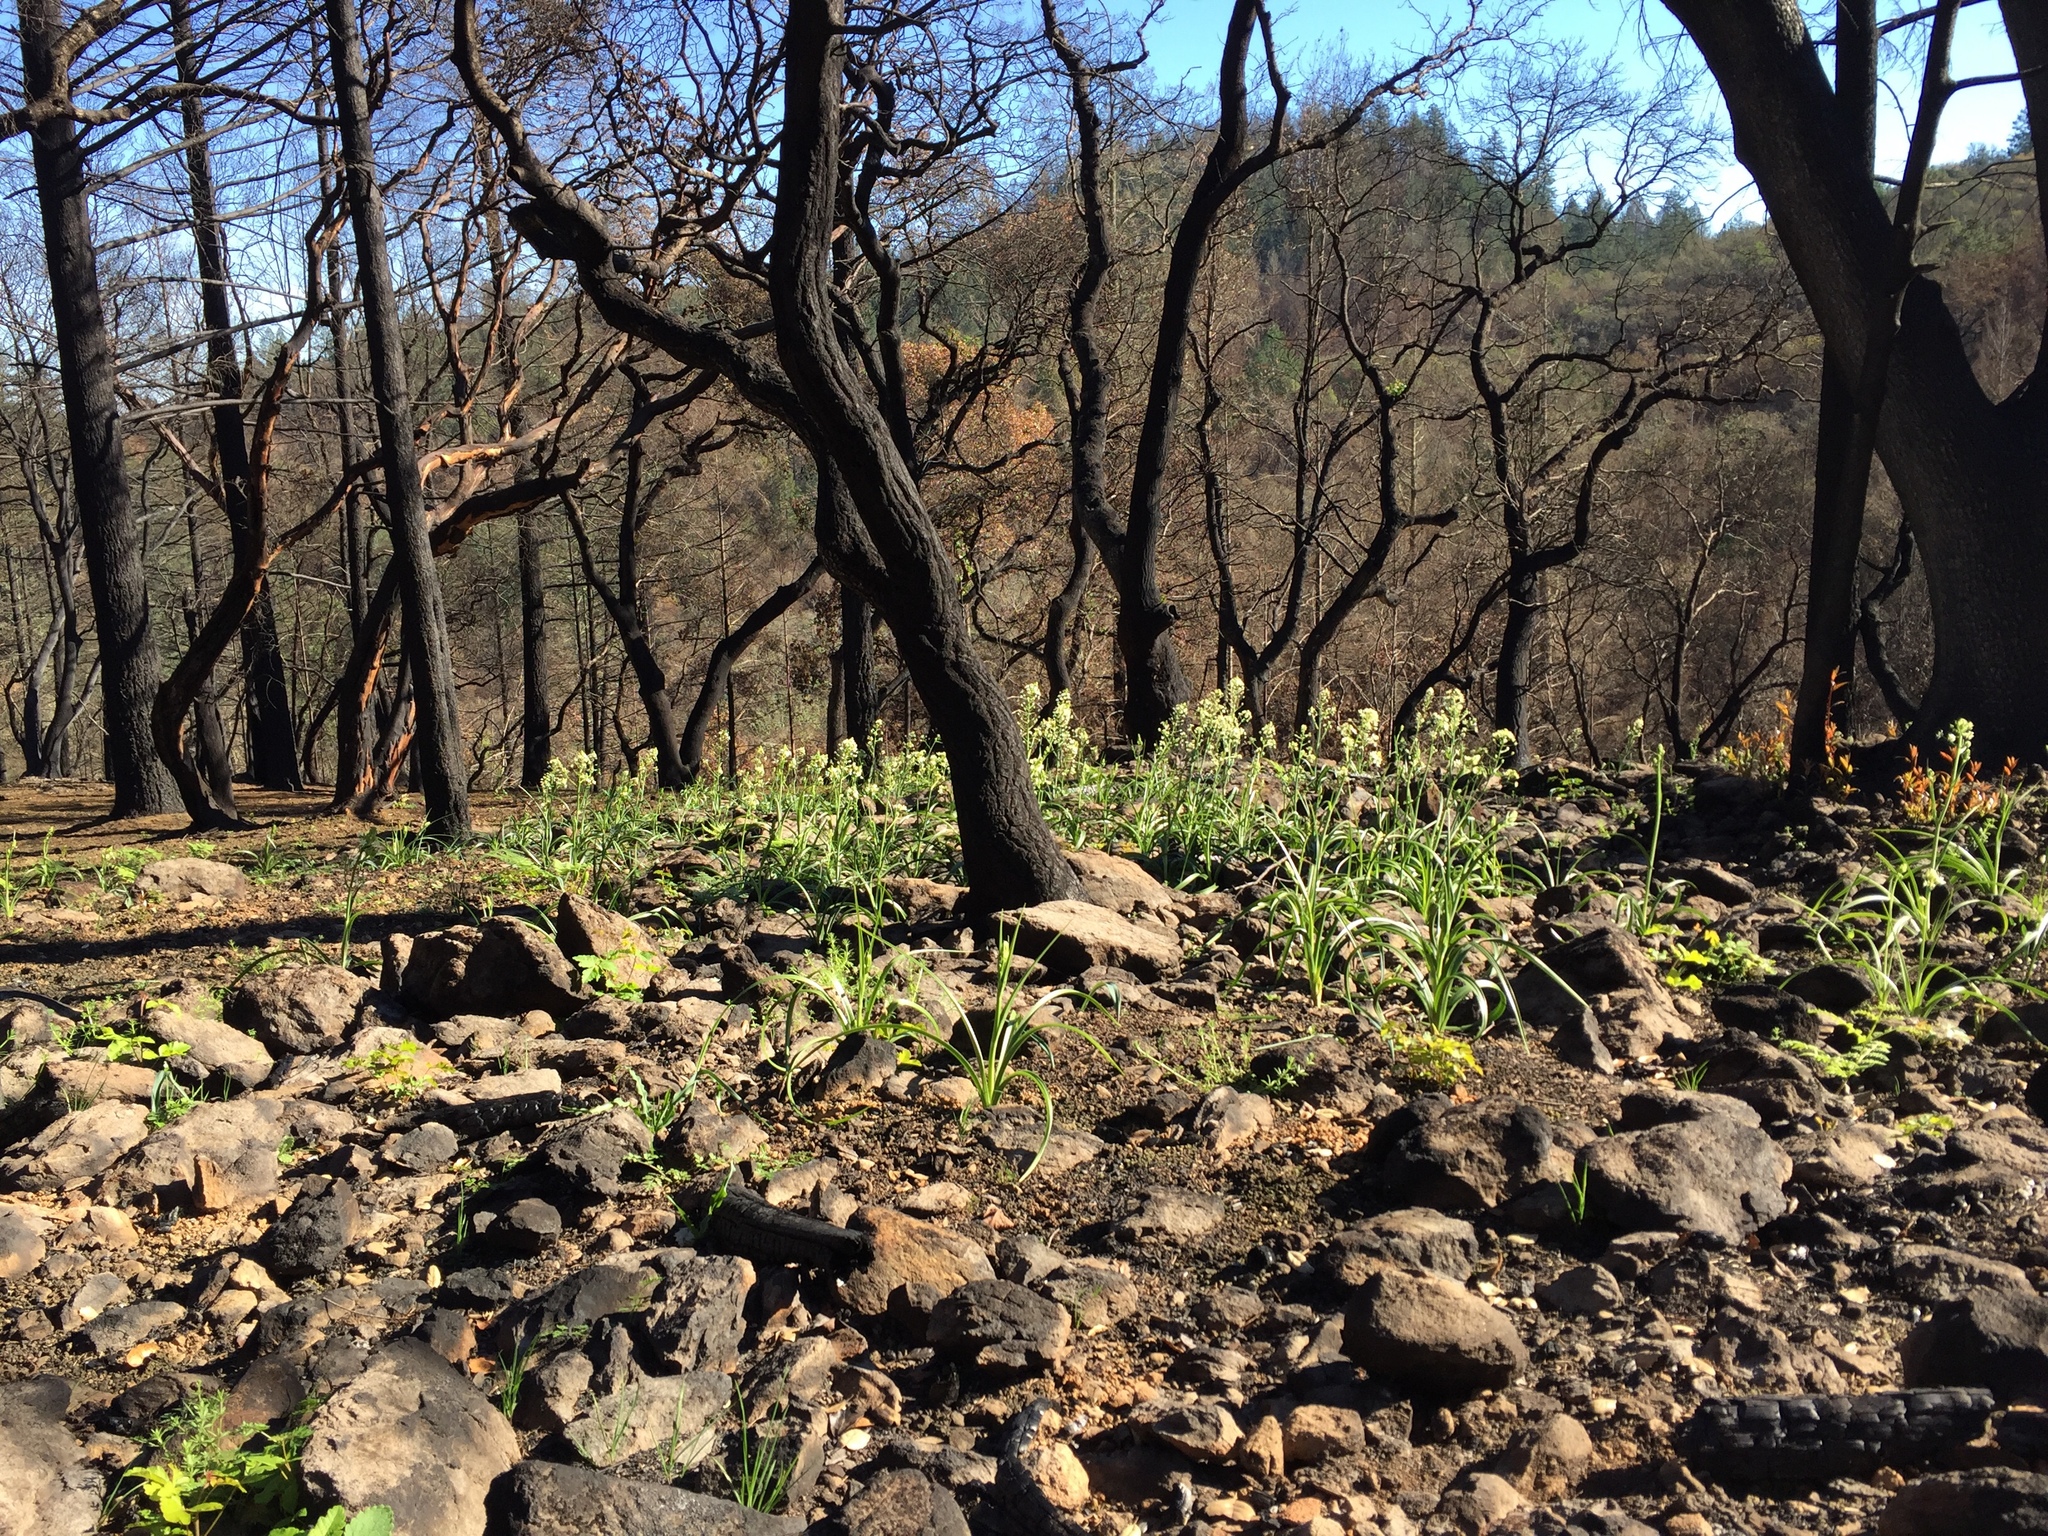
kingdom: Plantae
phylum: Tracheophyta
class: Liliopsida
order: Liliales
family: Melanthiaceae
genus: Toxicoscordion
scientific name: Toxicoscordion fremontii
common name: Fremont's death camas
